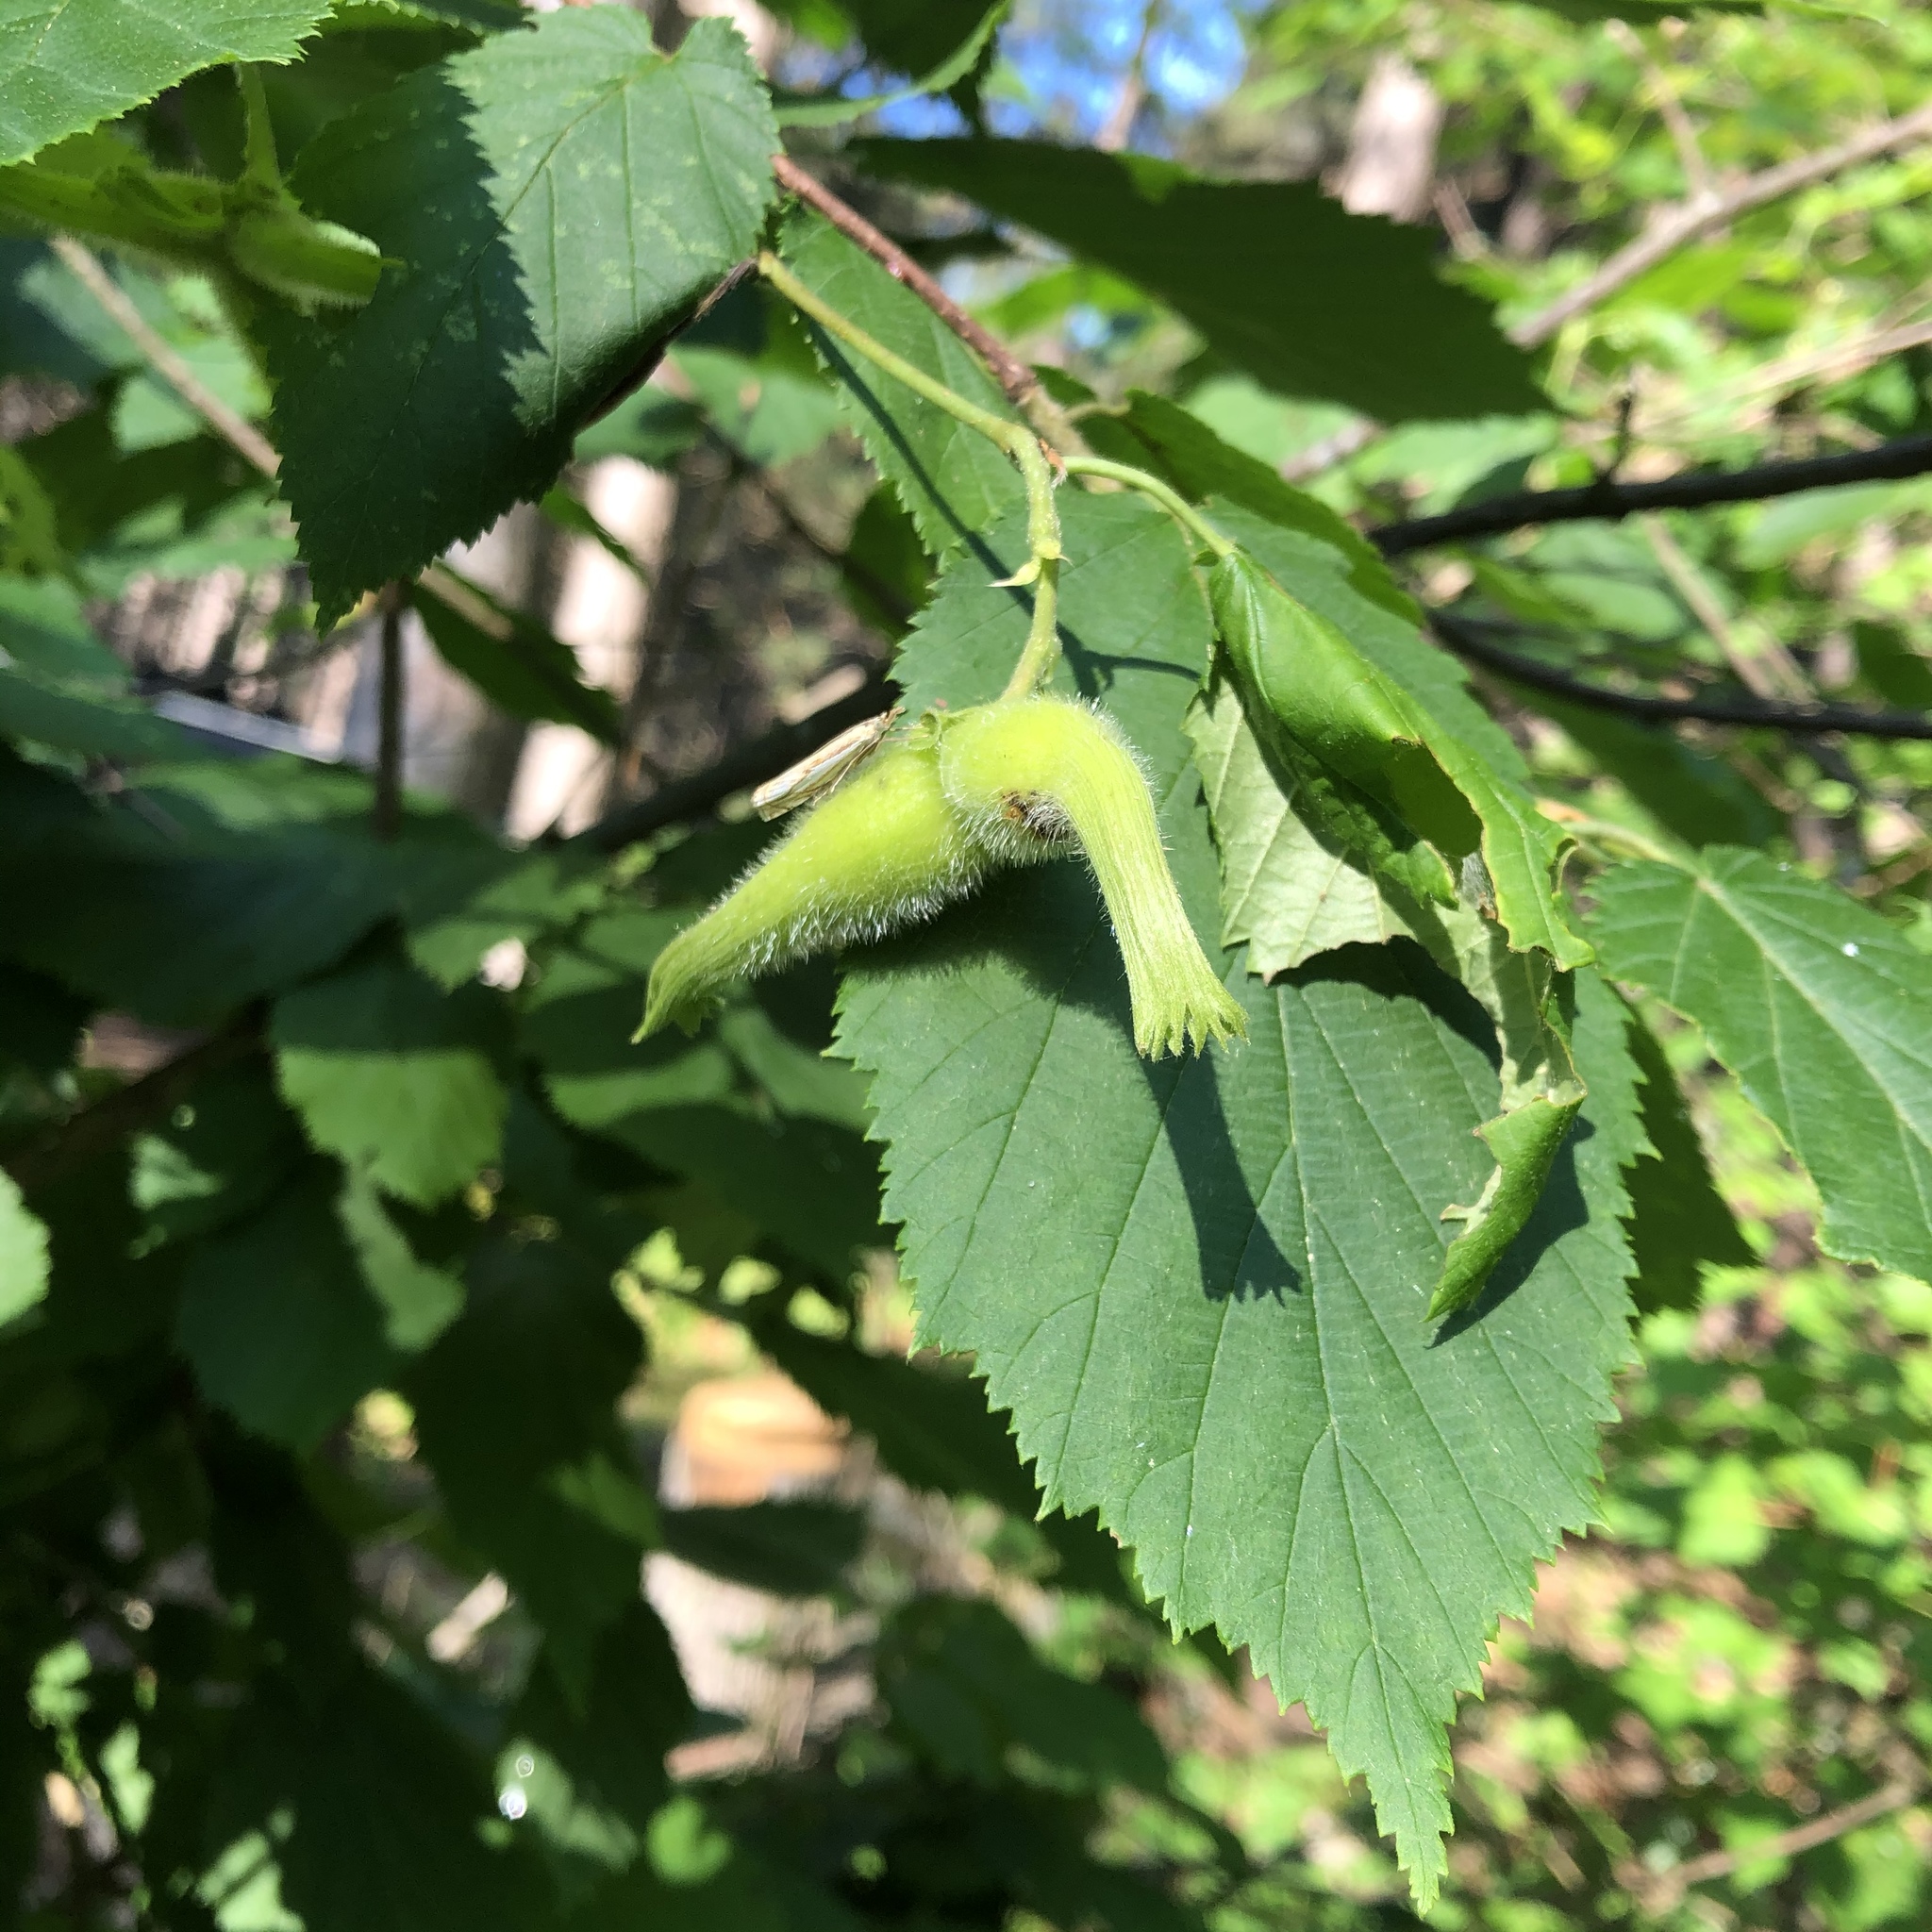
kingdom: Plantae
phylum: Tracheophyta
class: Magnoliopsida
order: Fagales
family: Betulaceae
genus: Corylus
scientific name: Corylus cornuta
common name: Beaked hazel
